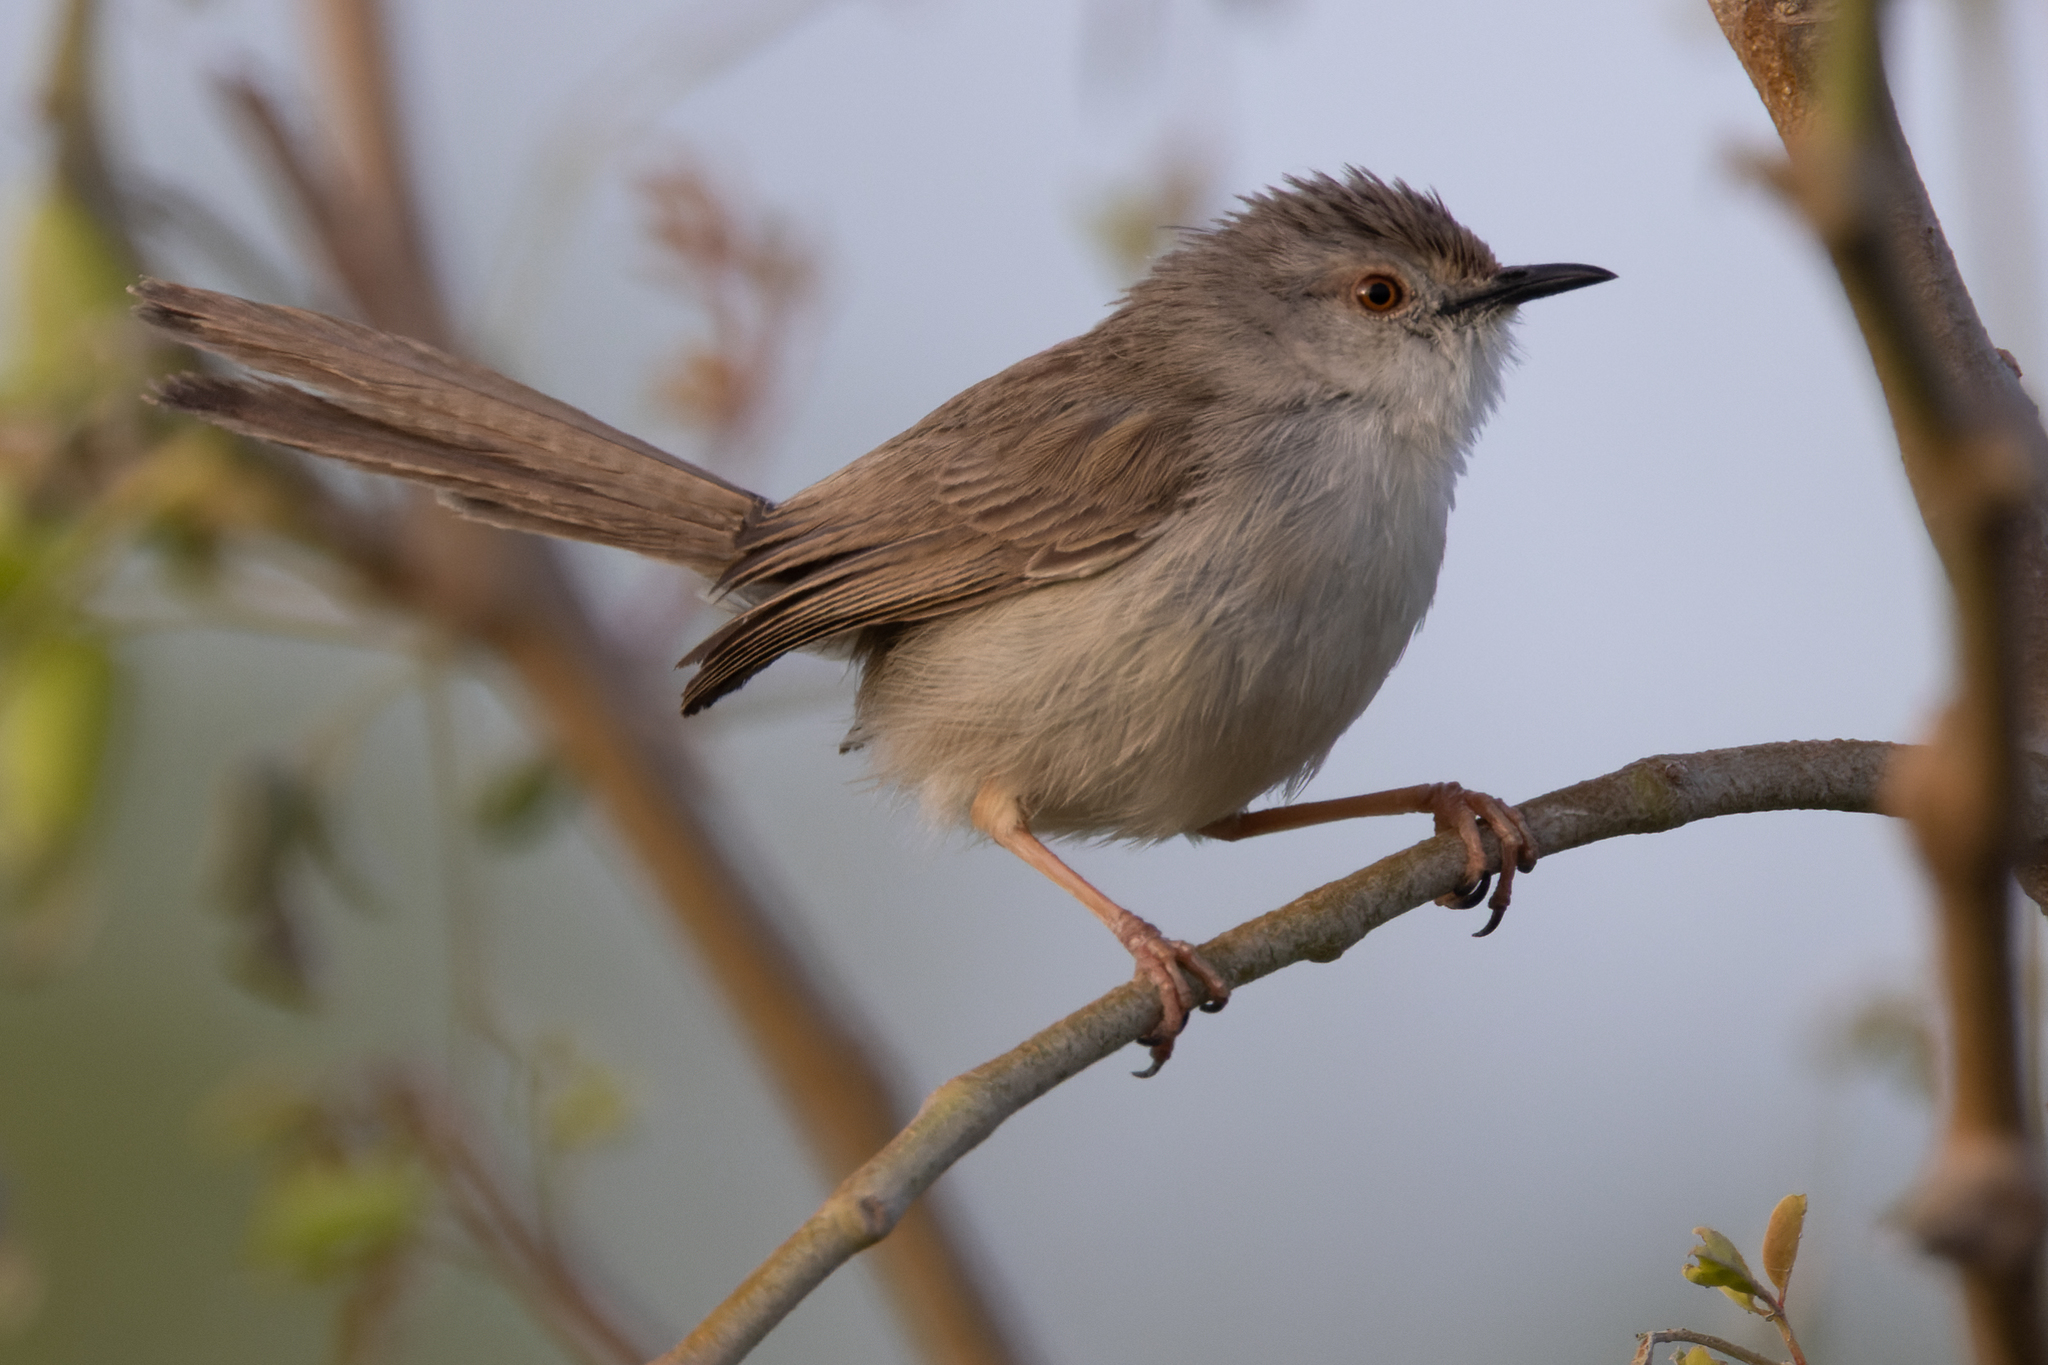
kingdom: Animalia
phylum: Chordata
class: Aves
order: Passeriformes
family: Cisticolidae
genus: Prinia
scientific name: Prinia gracilis
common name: Graceful prinia
